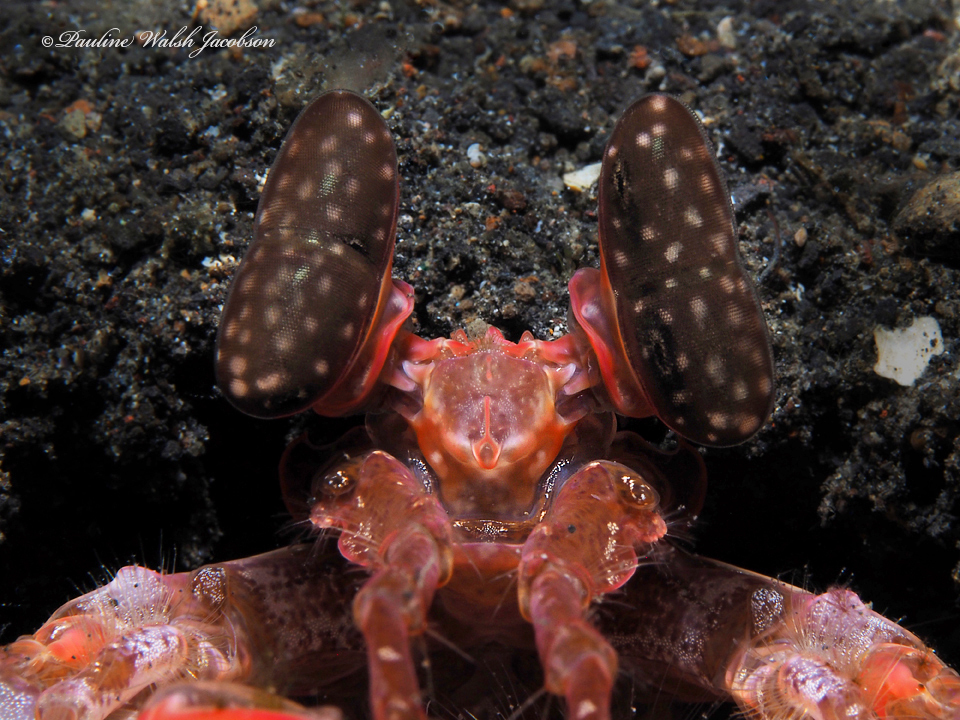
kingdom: Animalia
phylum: Arthropoda
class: Malacostraca
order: Stomatopoda
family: Lysiosquillidae
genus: Lysiosquilla
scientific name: Lysiosquilla lisa
